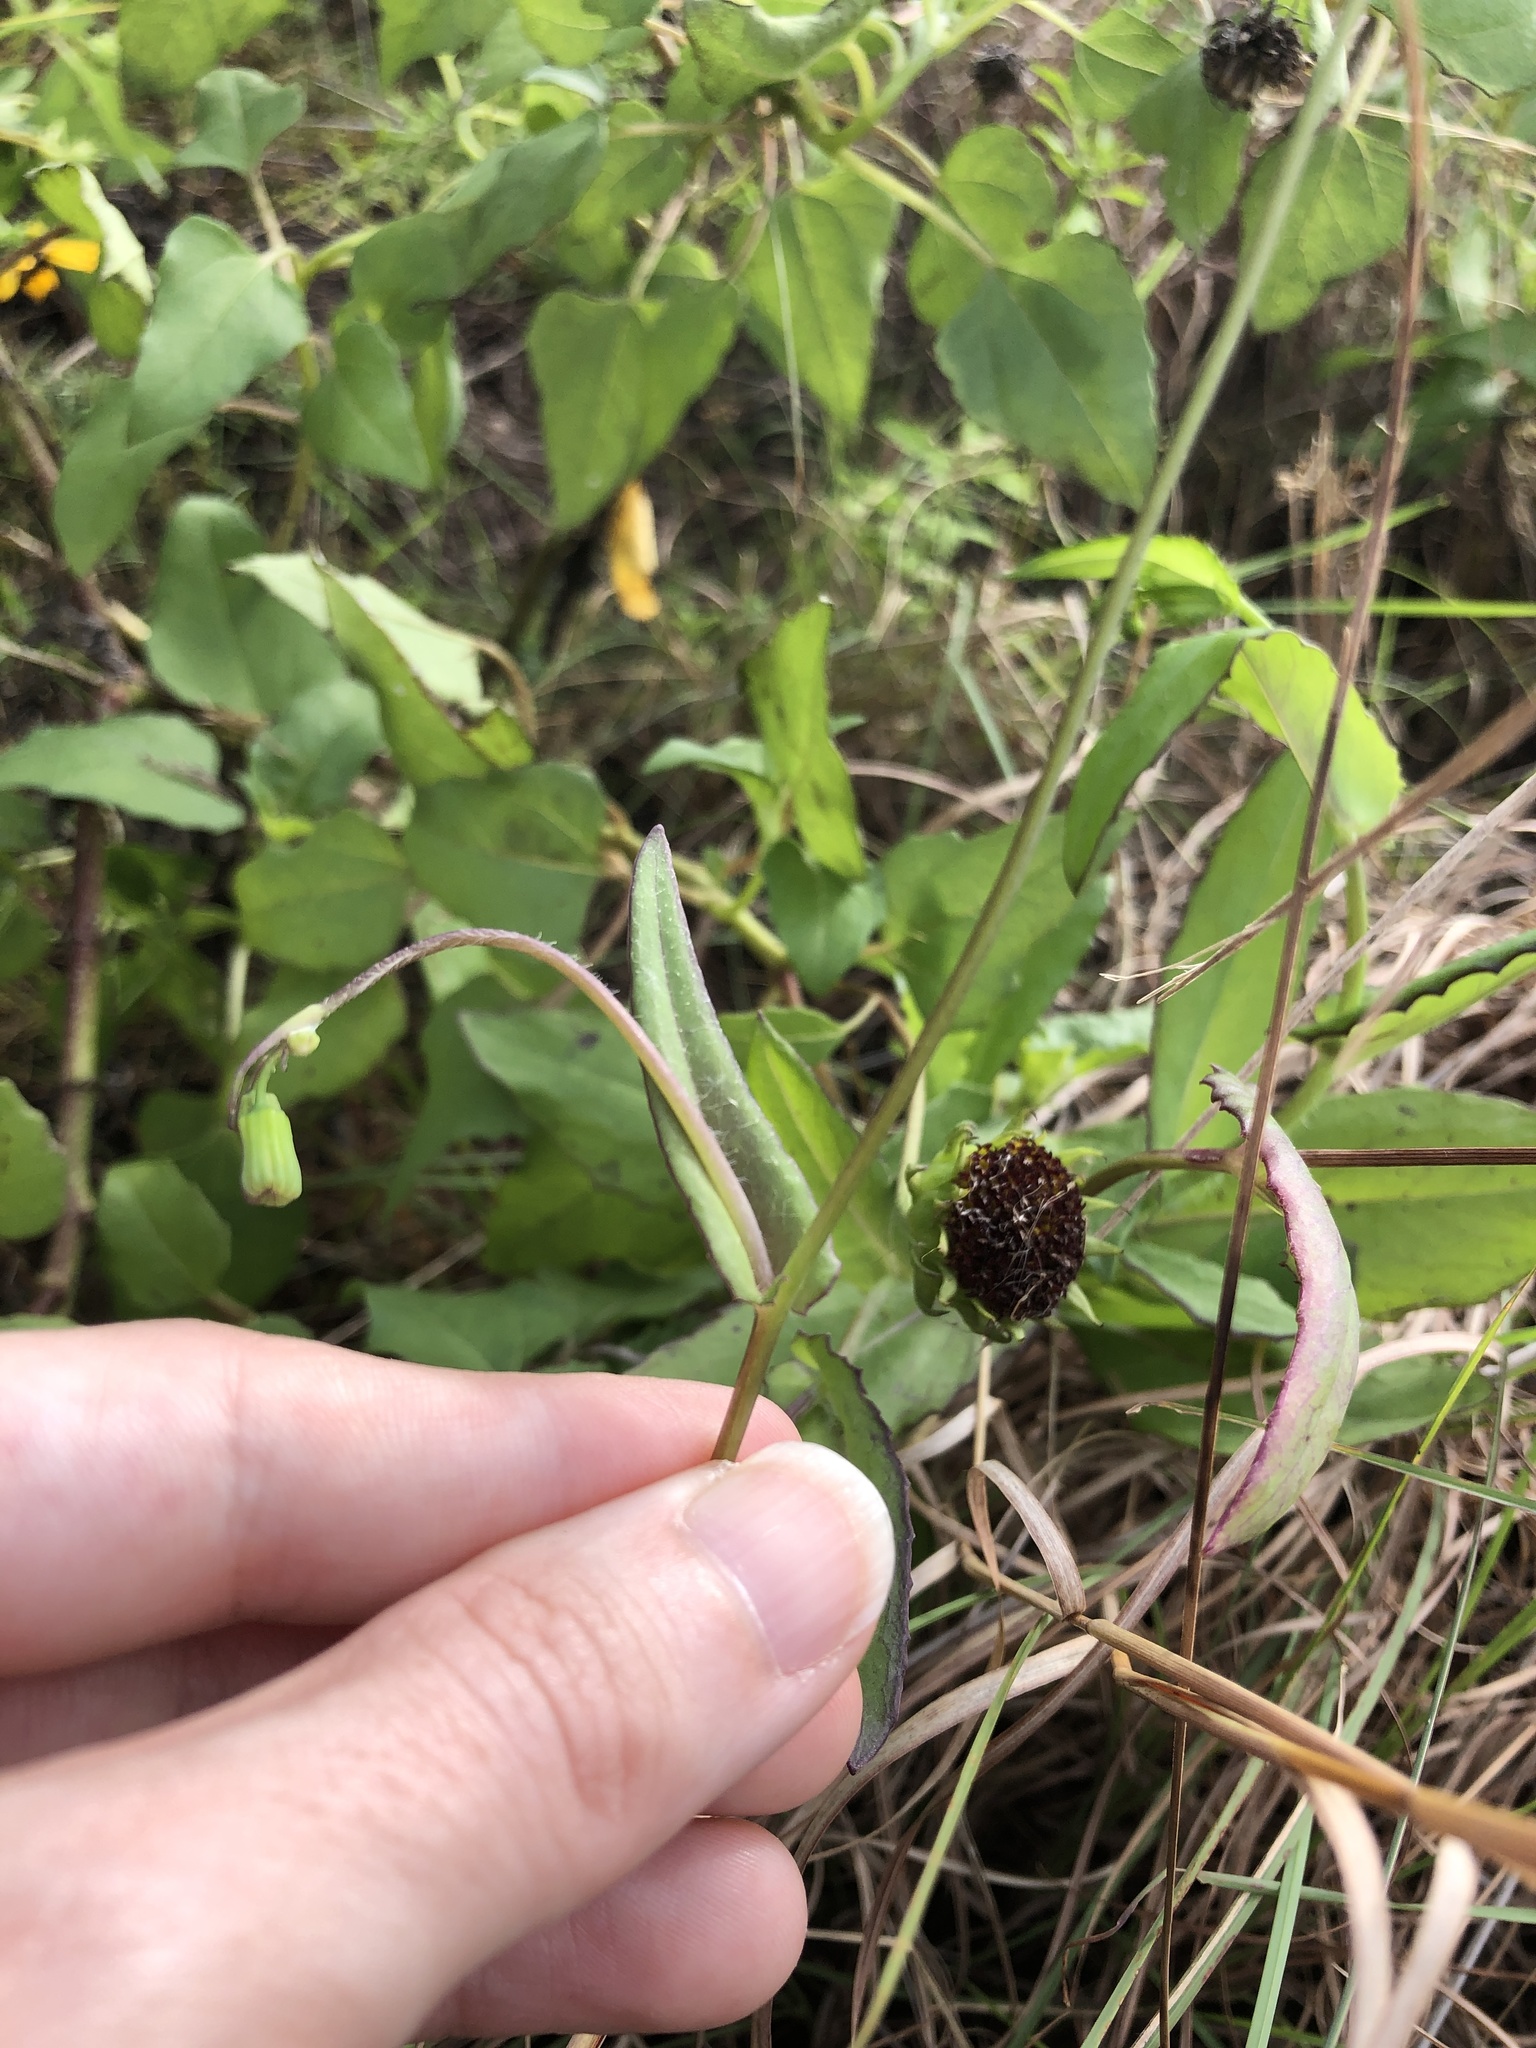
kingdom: Plantae
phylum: Tracheophyta
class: Magnoliopsida
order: Asterales
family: Asteraceae
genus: Emilia
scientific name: Emilia fosbergii
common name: Florida tasselflower
